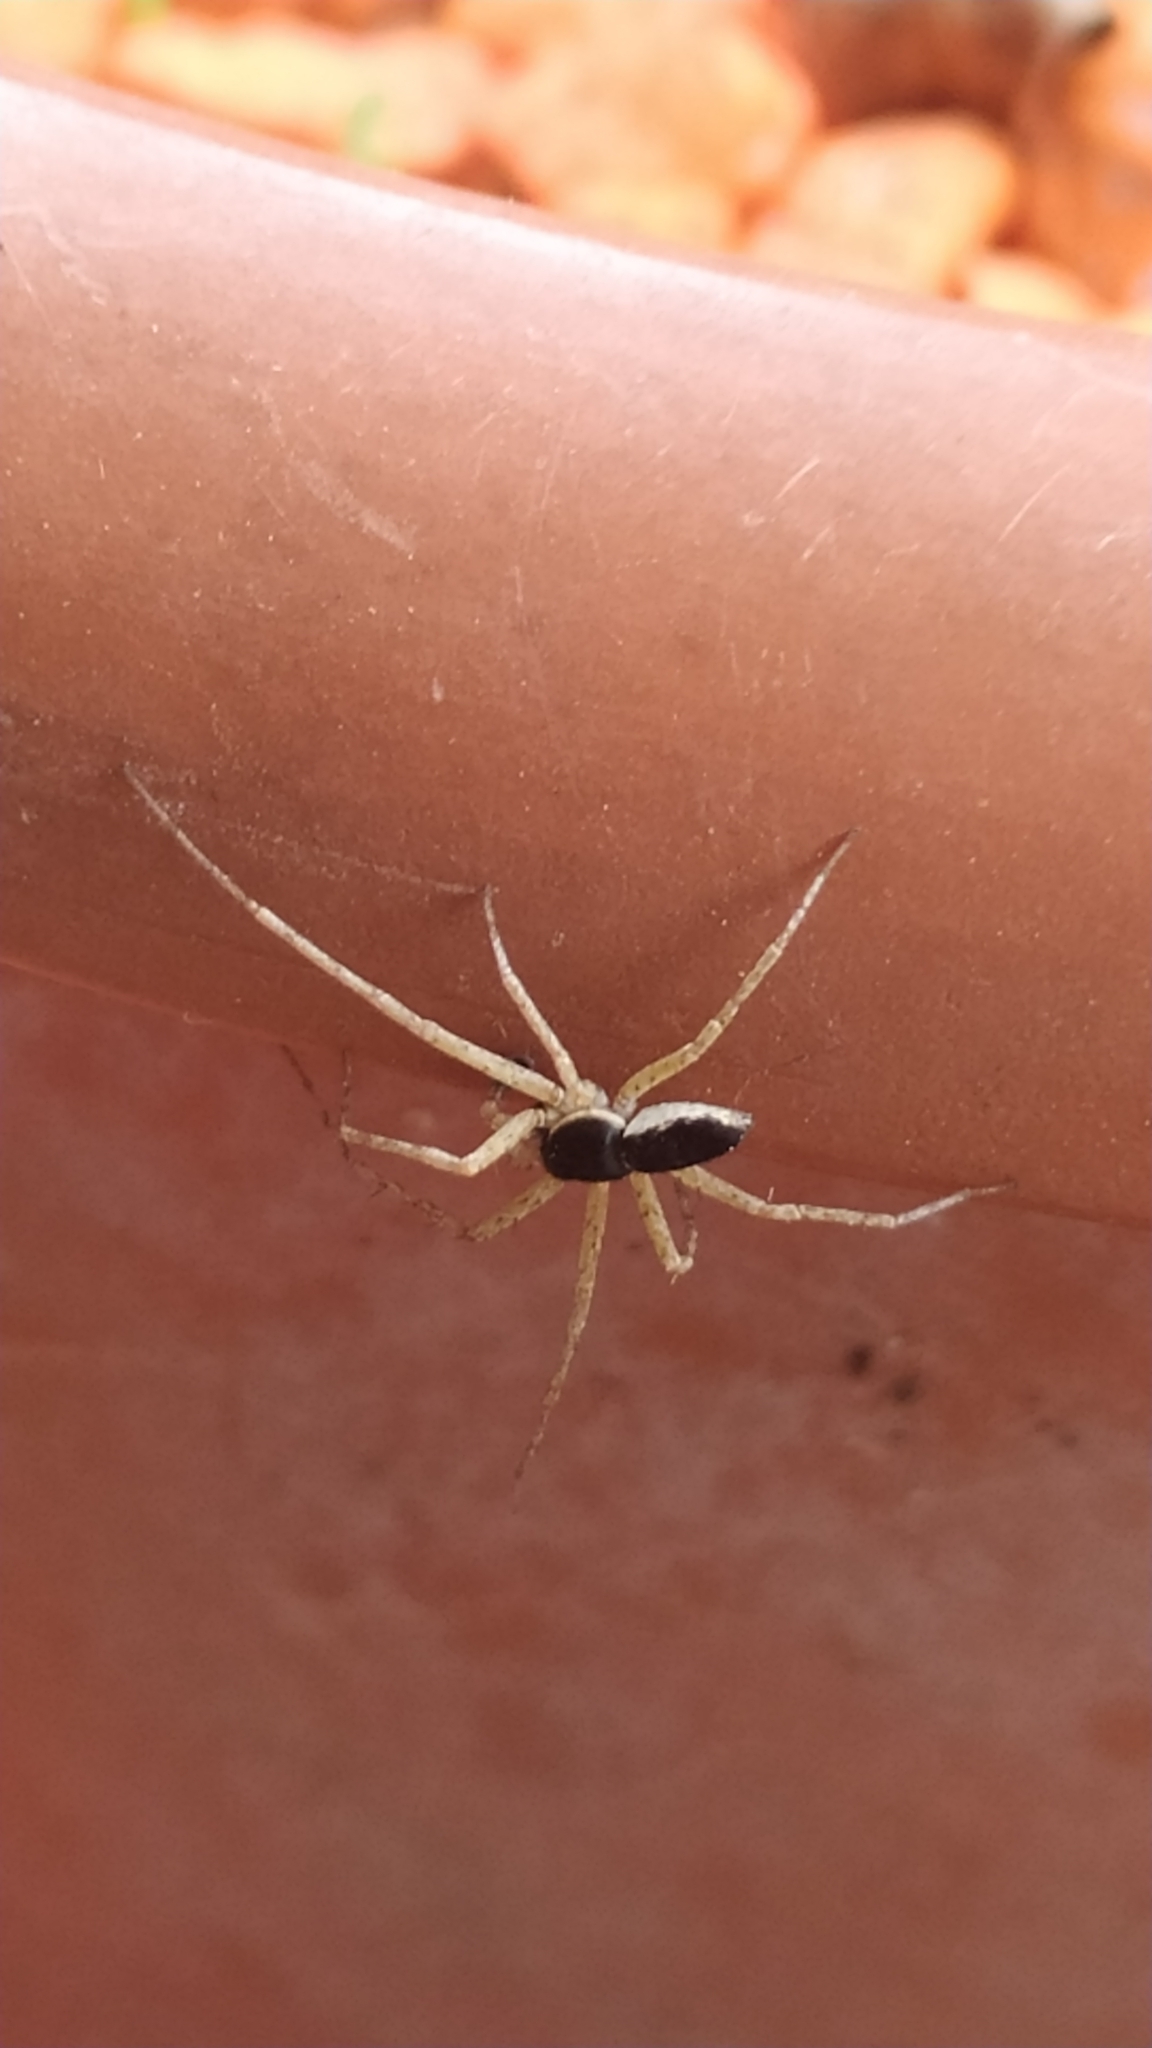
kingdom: Animalia
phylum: Arthropoda
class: Arachnida
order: Araneae
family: Philodromidae
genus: Philodromus
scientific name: Philodromus dispar
